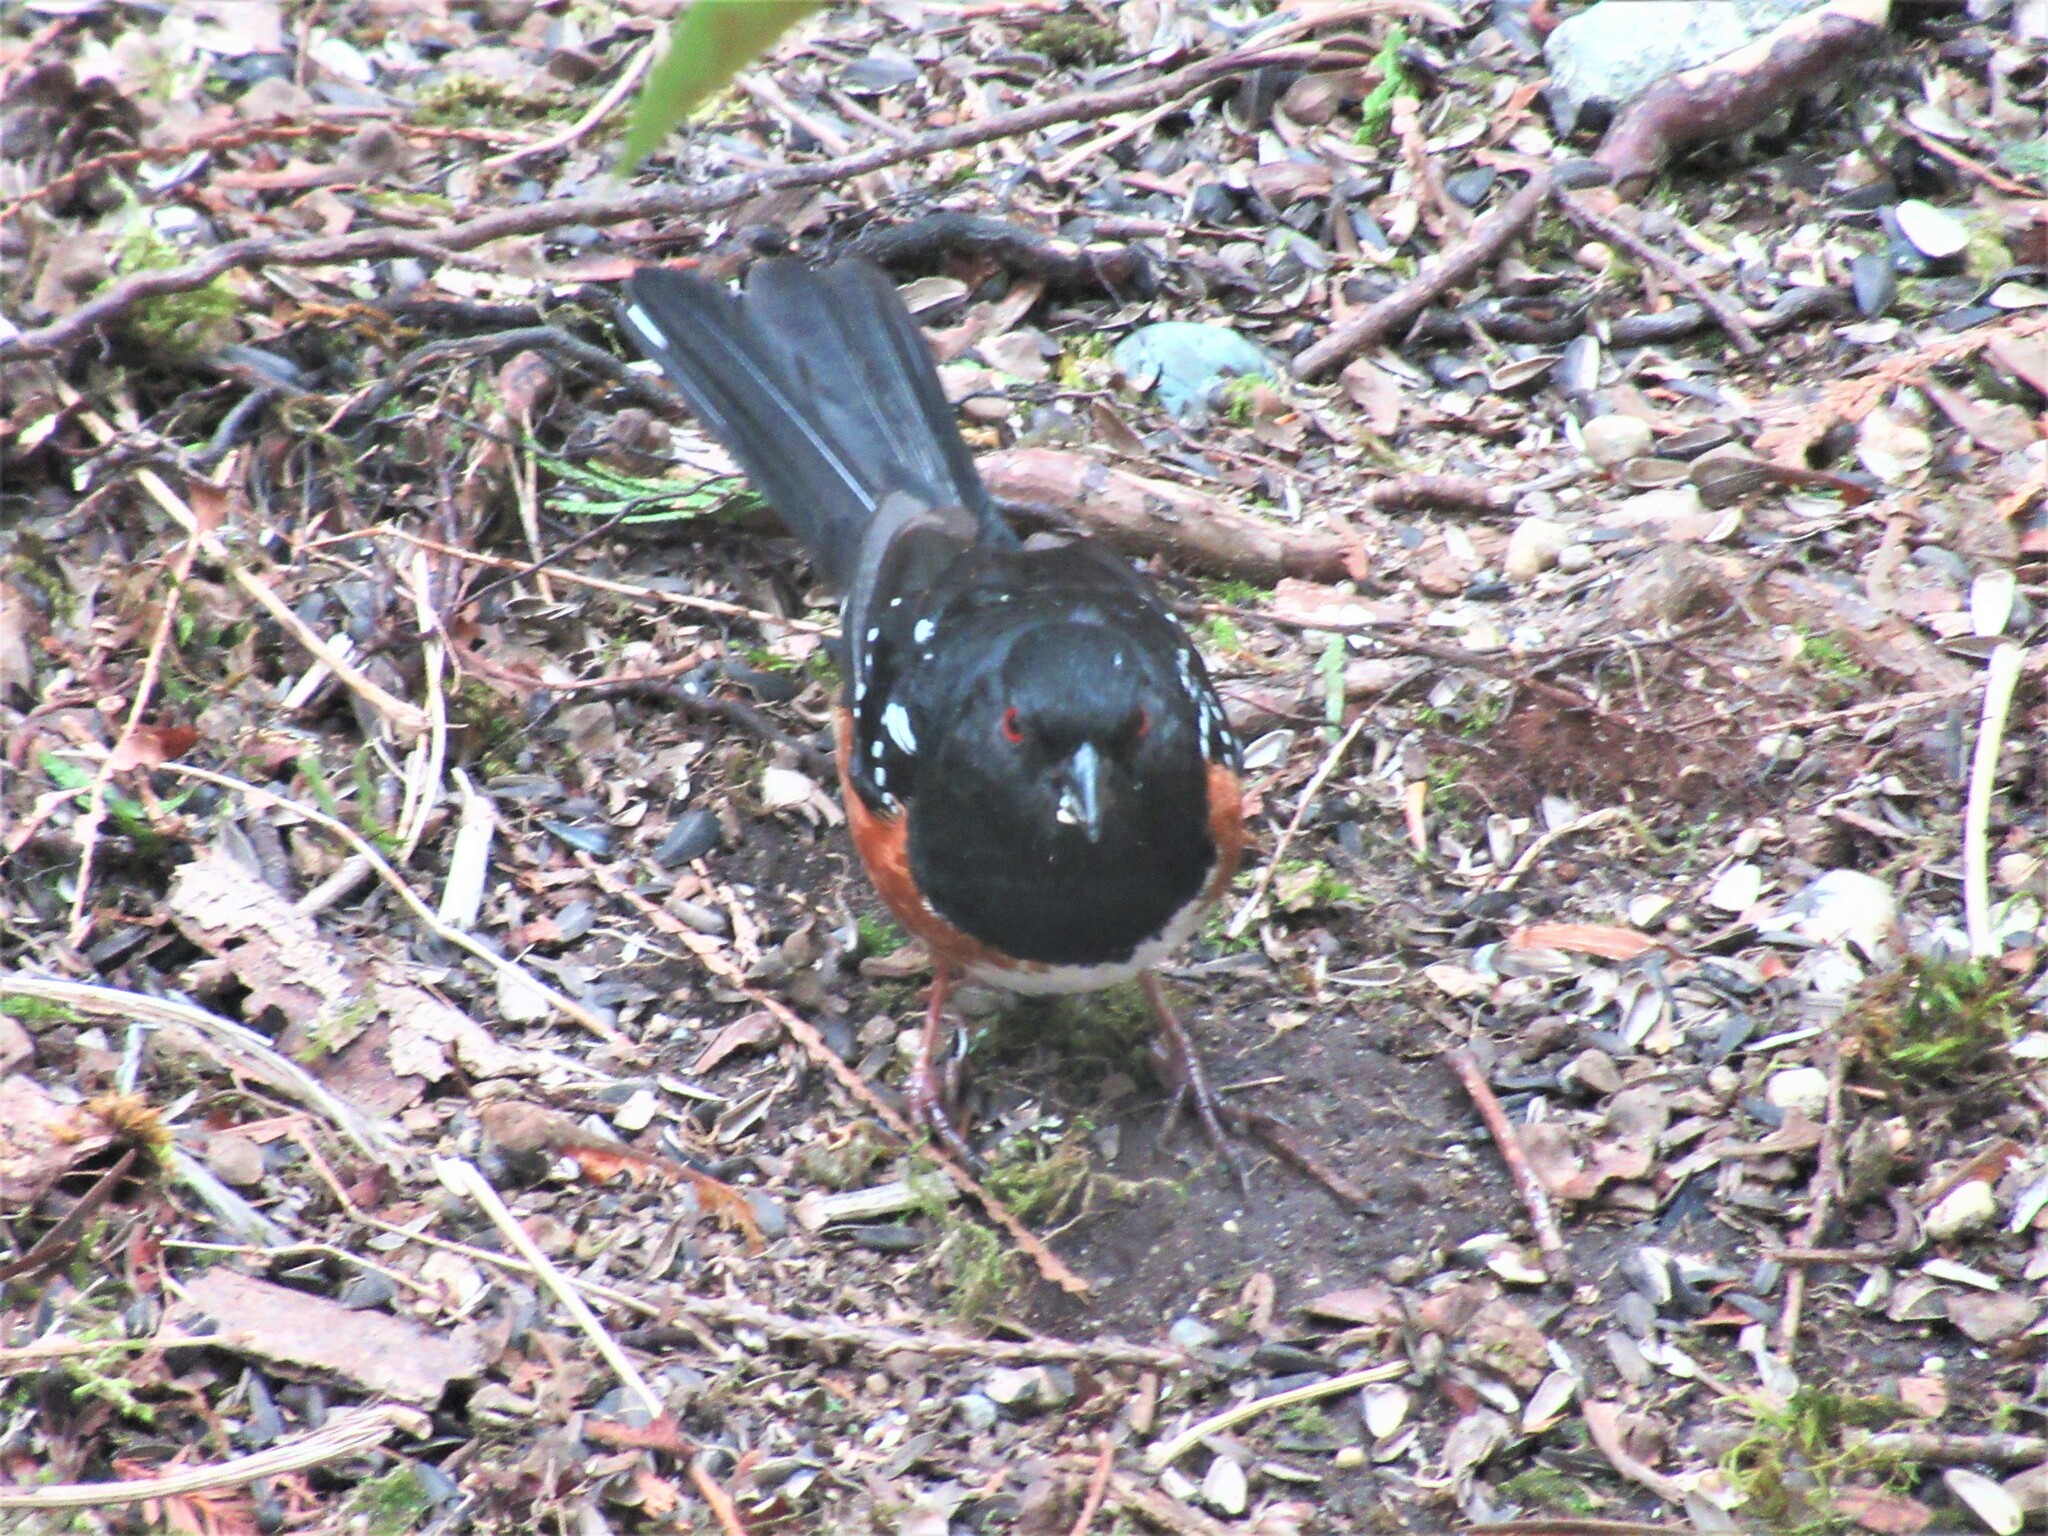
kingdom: Animalia
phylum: Chordata
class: Aves
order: Passeriformes
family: Passerellidae
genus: Pipilo
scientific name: Pipilo maculatus
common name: Spotted towhee
